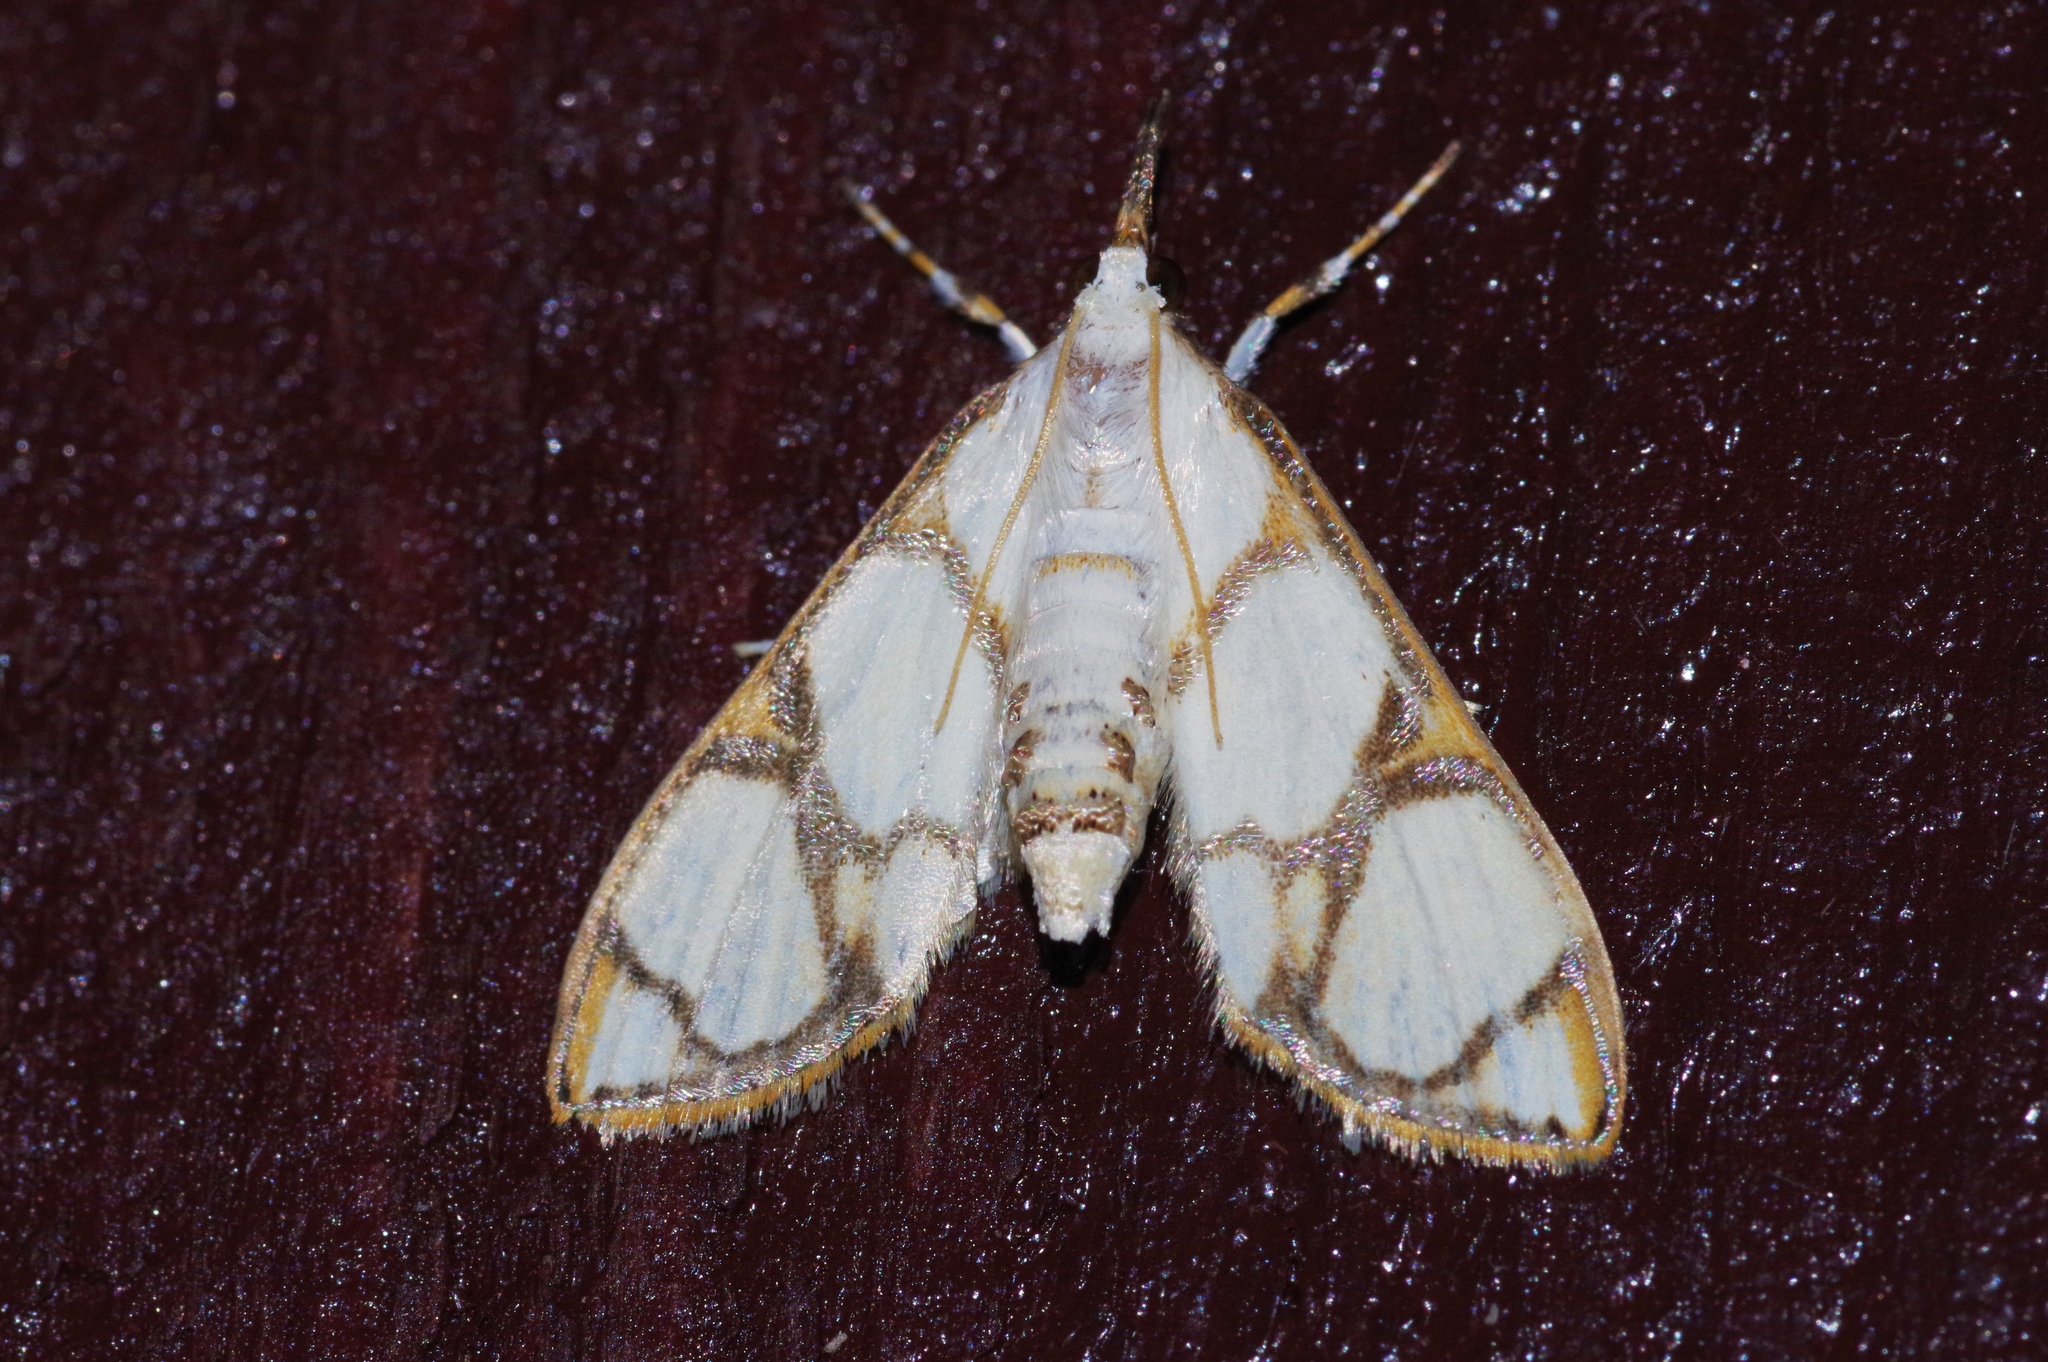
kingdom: Animalia
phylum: Arthropoda
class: Insecta
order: Lepidoptera
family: Crambidae
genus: Cirrhochrista
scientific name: Cirrhochrista kosemponialis
